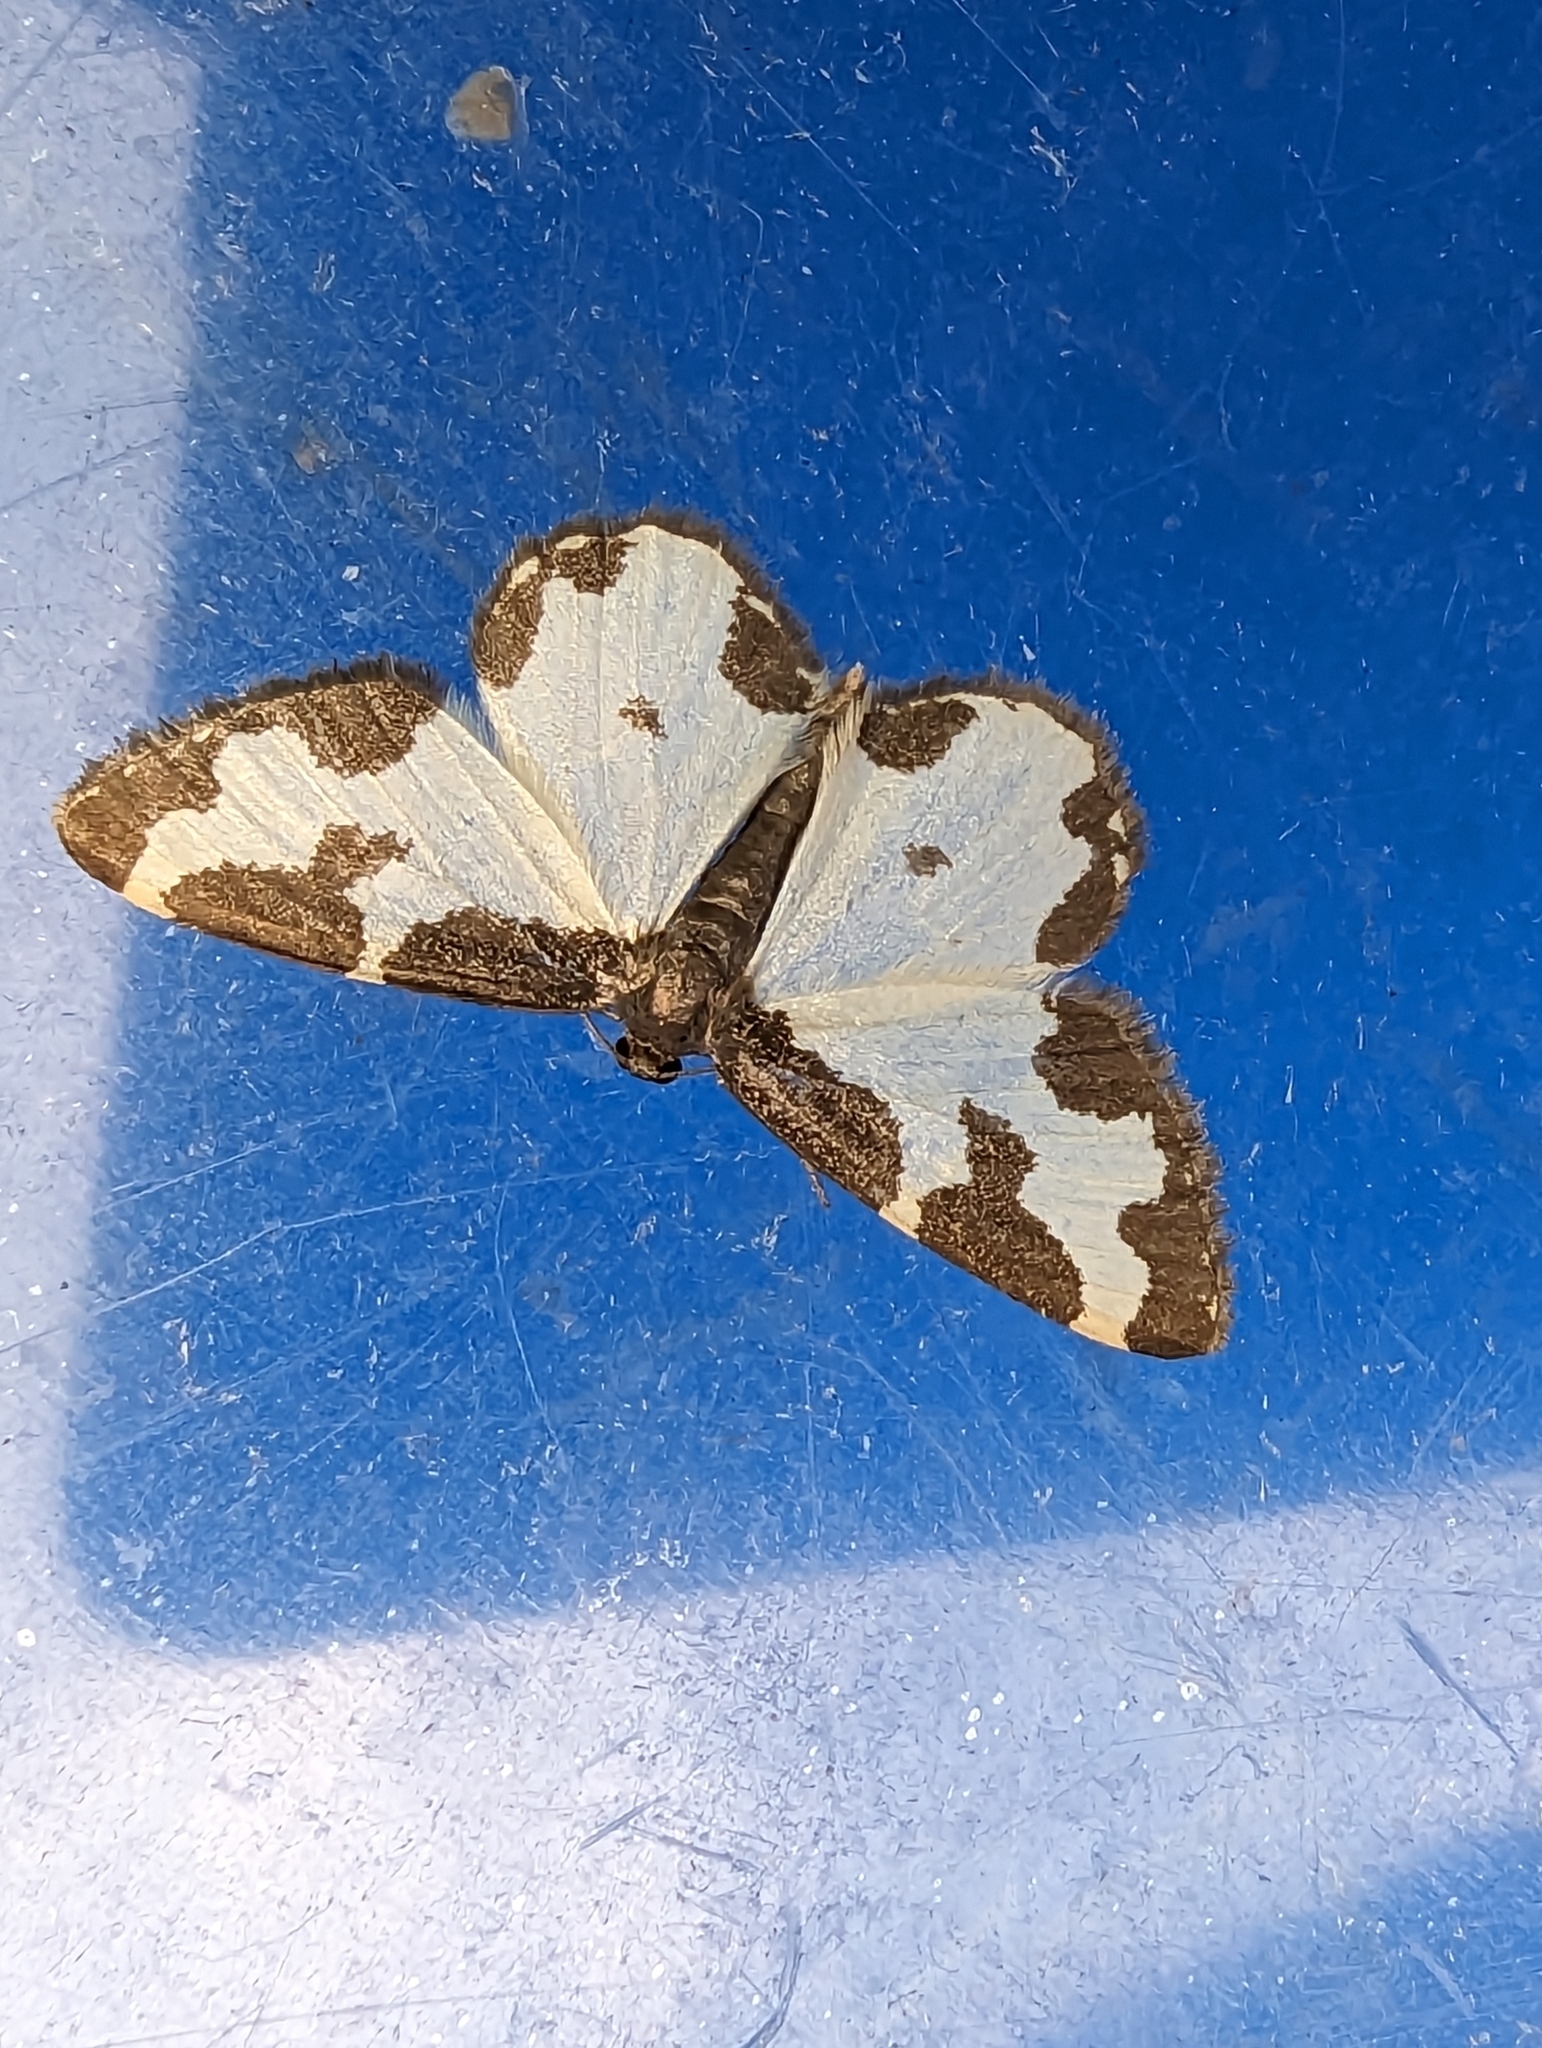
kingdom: Animalia
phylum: Arthropoda
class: Insecta
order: Lepidoptera
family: Geometridae
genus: Lomaspilis
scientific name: Lomaspilis marginata
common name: Clouded border
